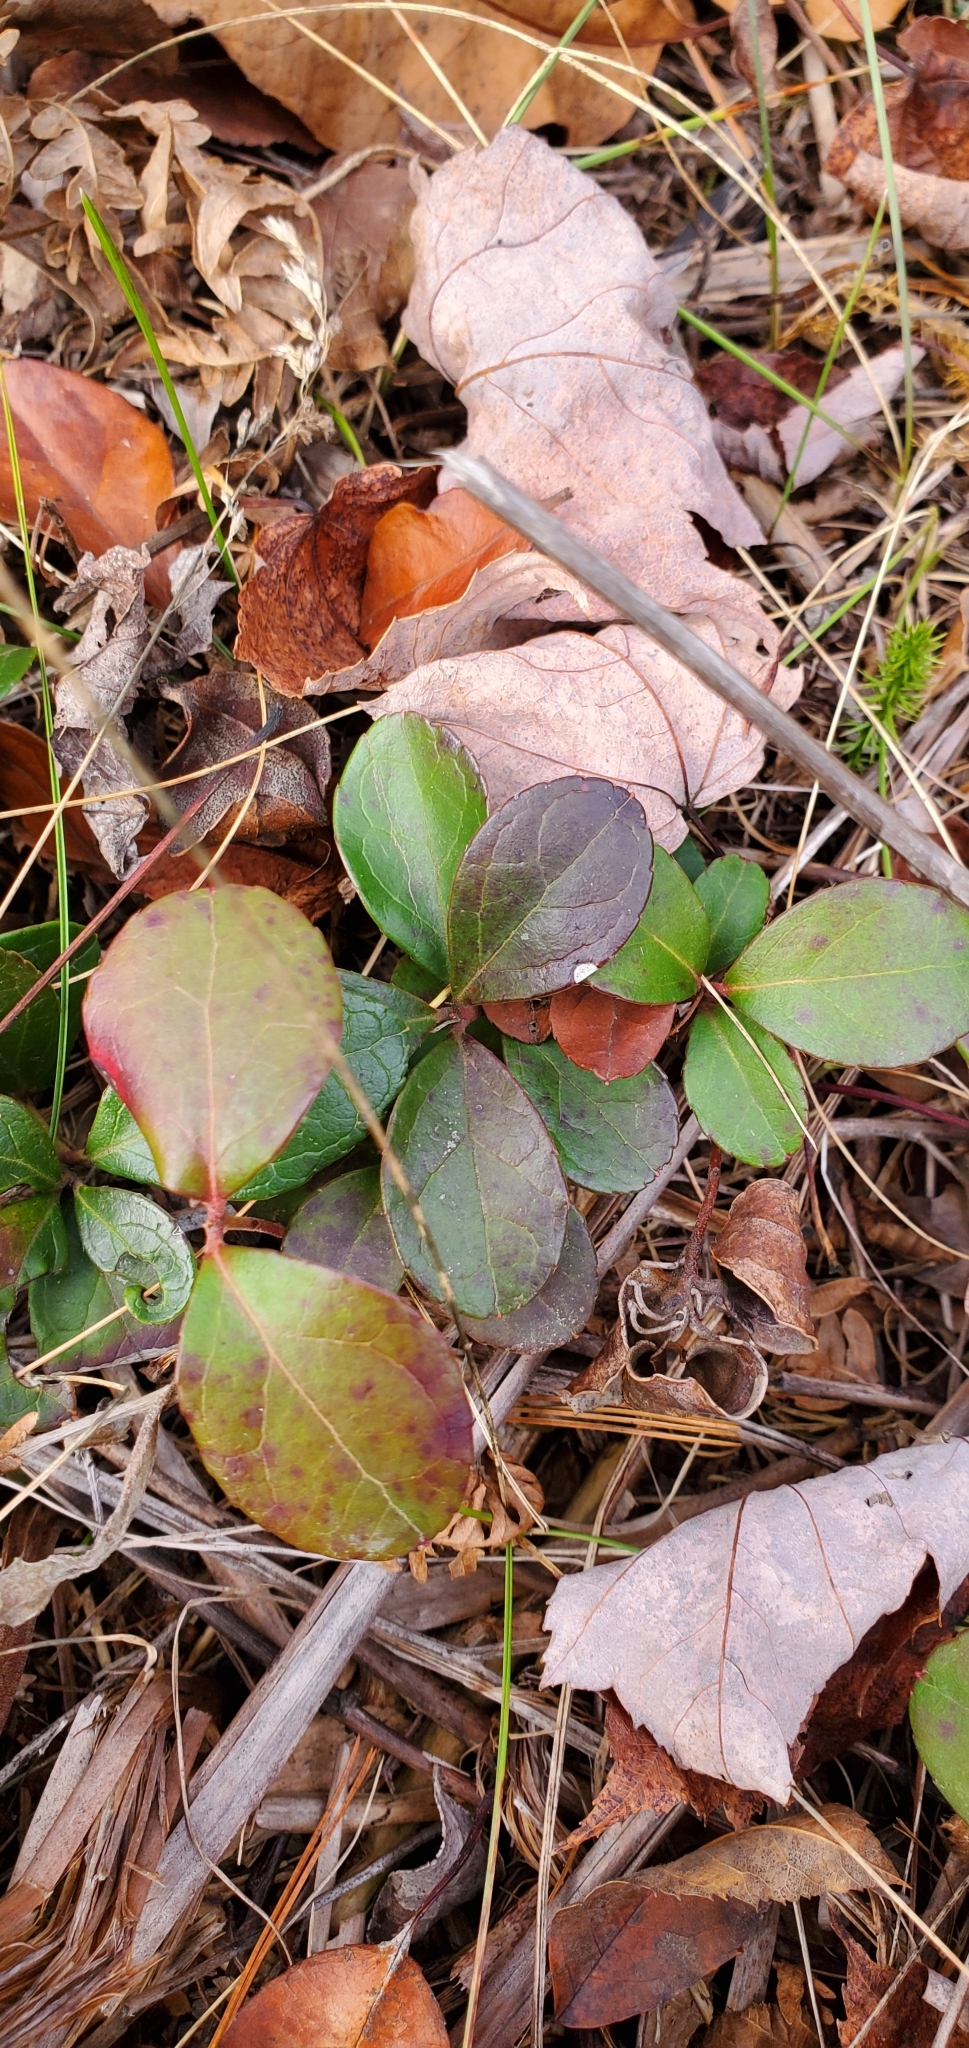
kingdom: Plantae
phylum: Tracheophyta
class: Magnoliopsida
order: Ericales
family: Ericaceae
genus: Gaultheria
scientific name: Gaultheria procumbens
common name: Checkerberry
